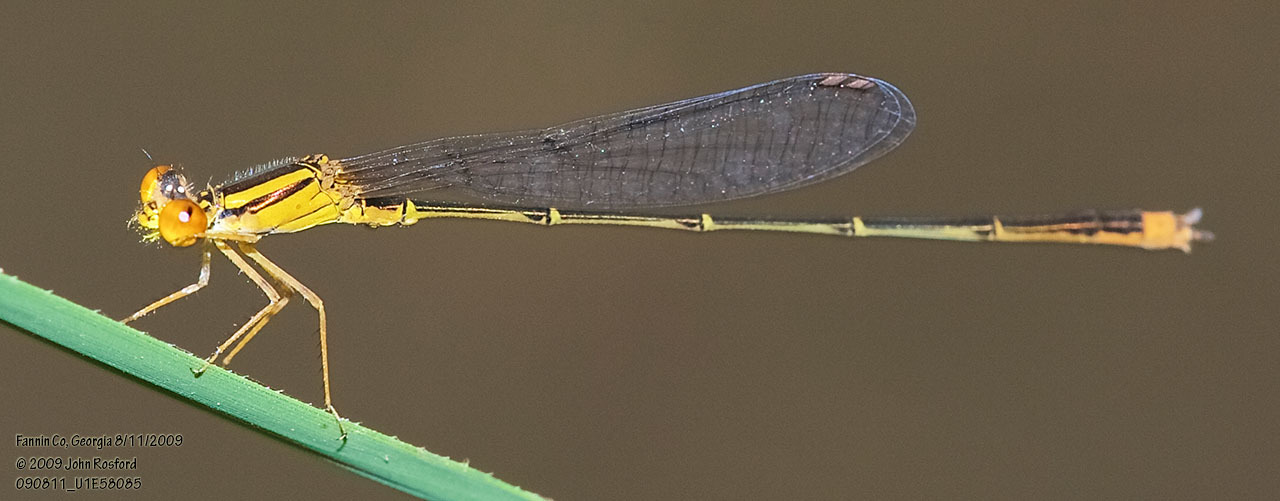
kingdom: Animalia
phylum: Arthropoda
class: Insecta
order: Odonata
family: Coenagrionidae
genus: Enallagma
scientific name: Enallagma signatum
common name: Orange bluet
